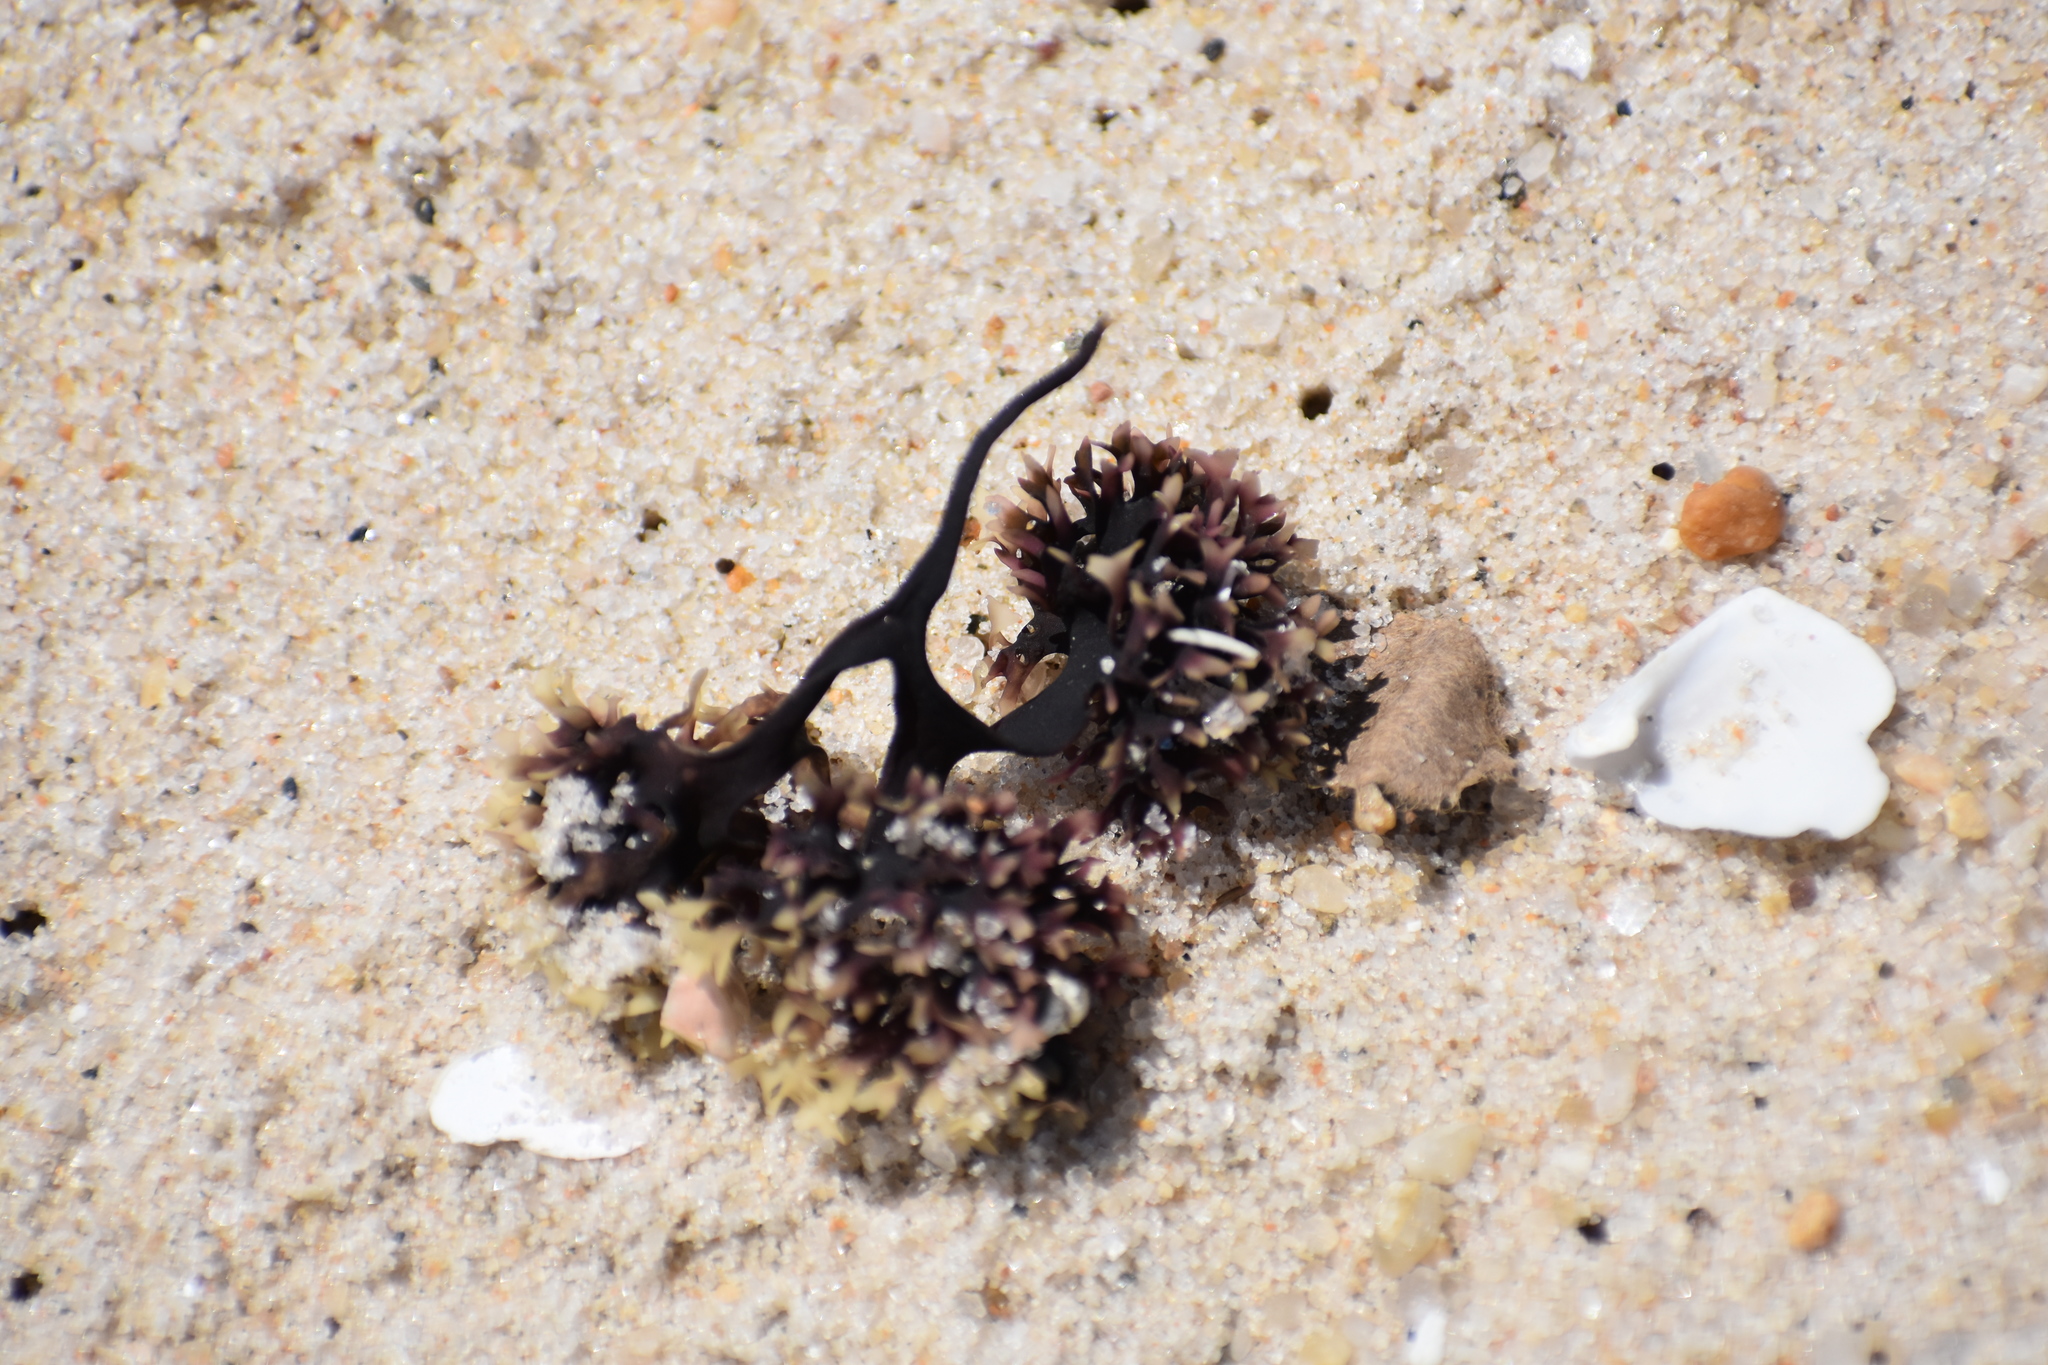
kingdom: Plantae
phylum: Rhodophyta
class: Florideophyceae
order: Gigartinales
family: Gigartinaceae
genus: Chondrus
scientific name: Chondrus crispus
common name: Carrageen
